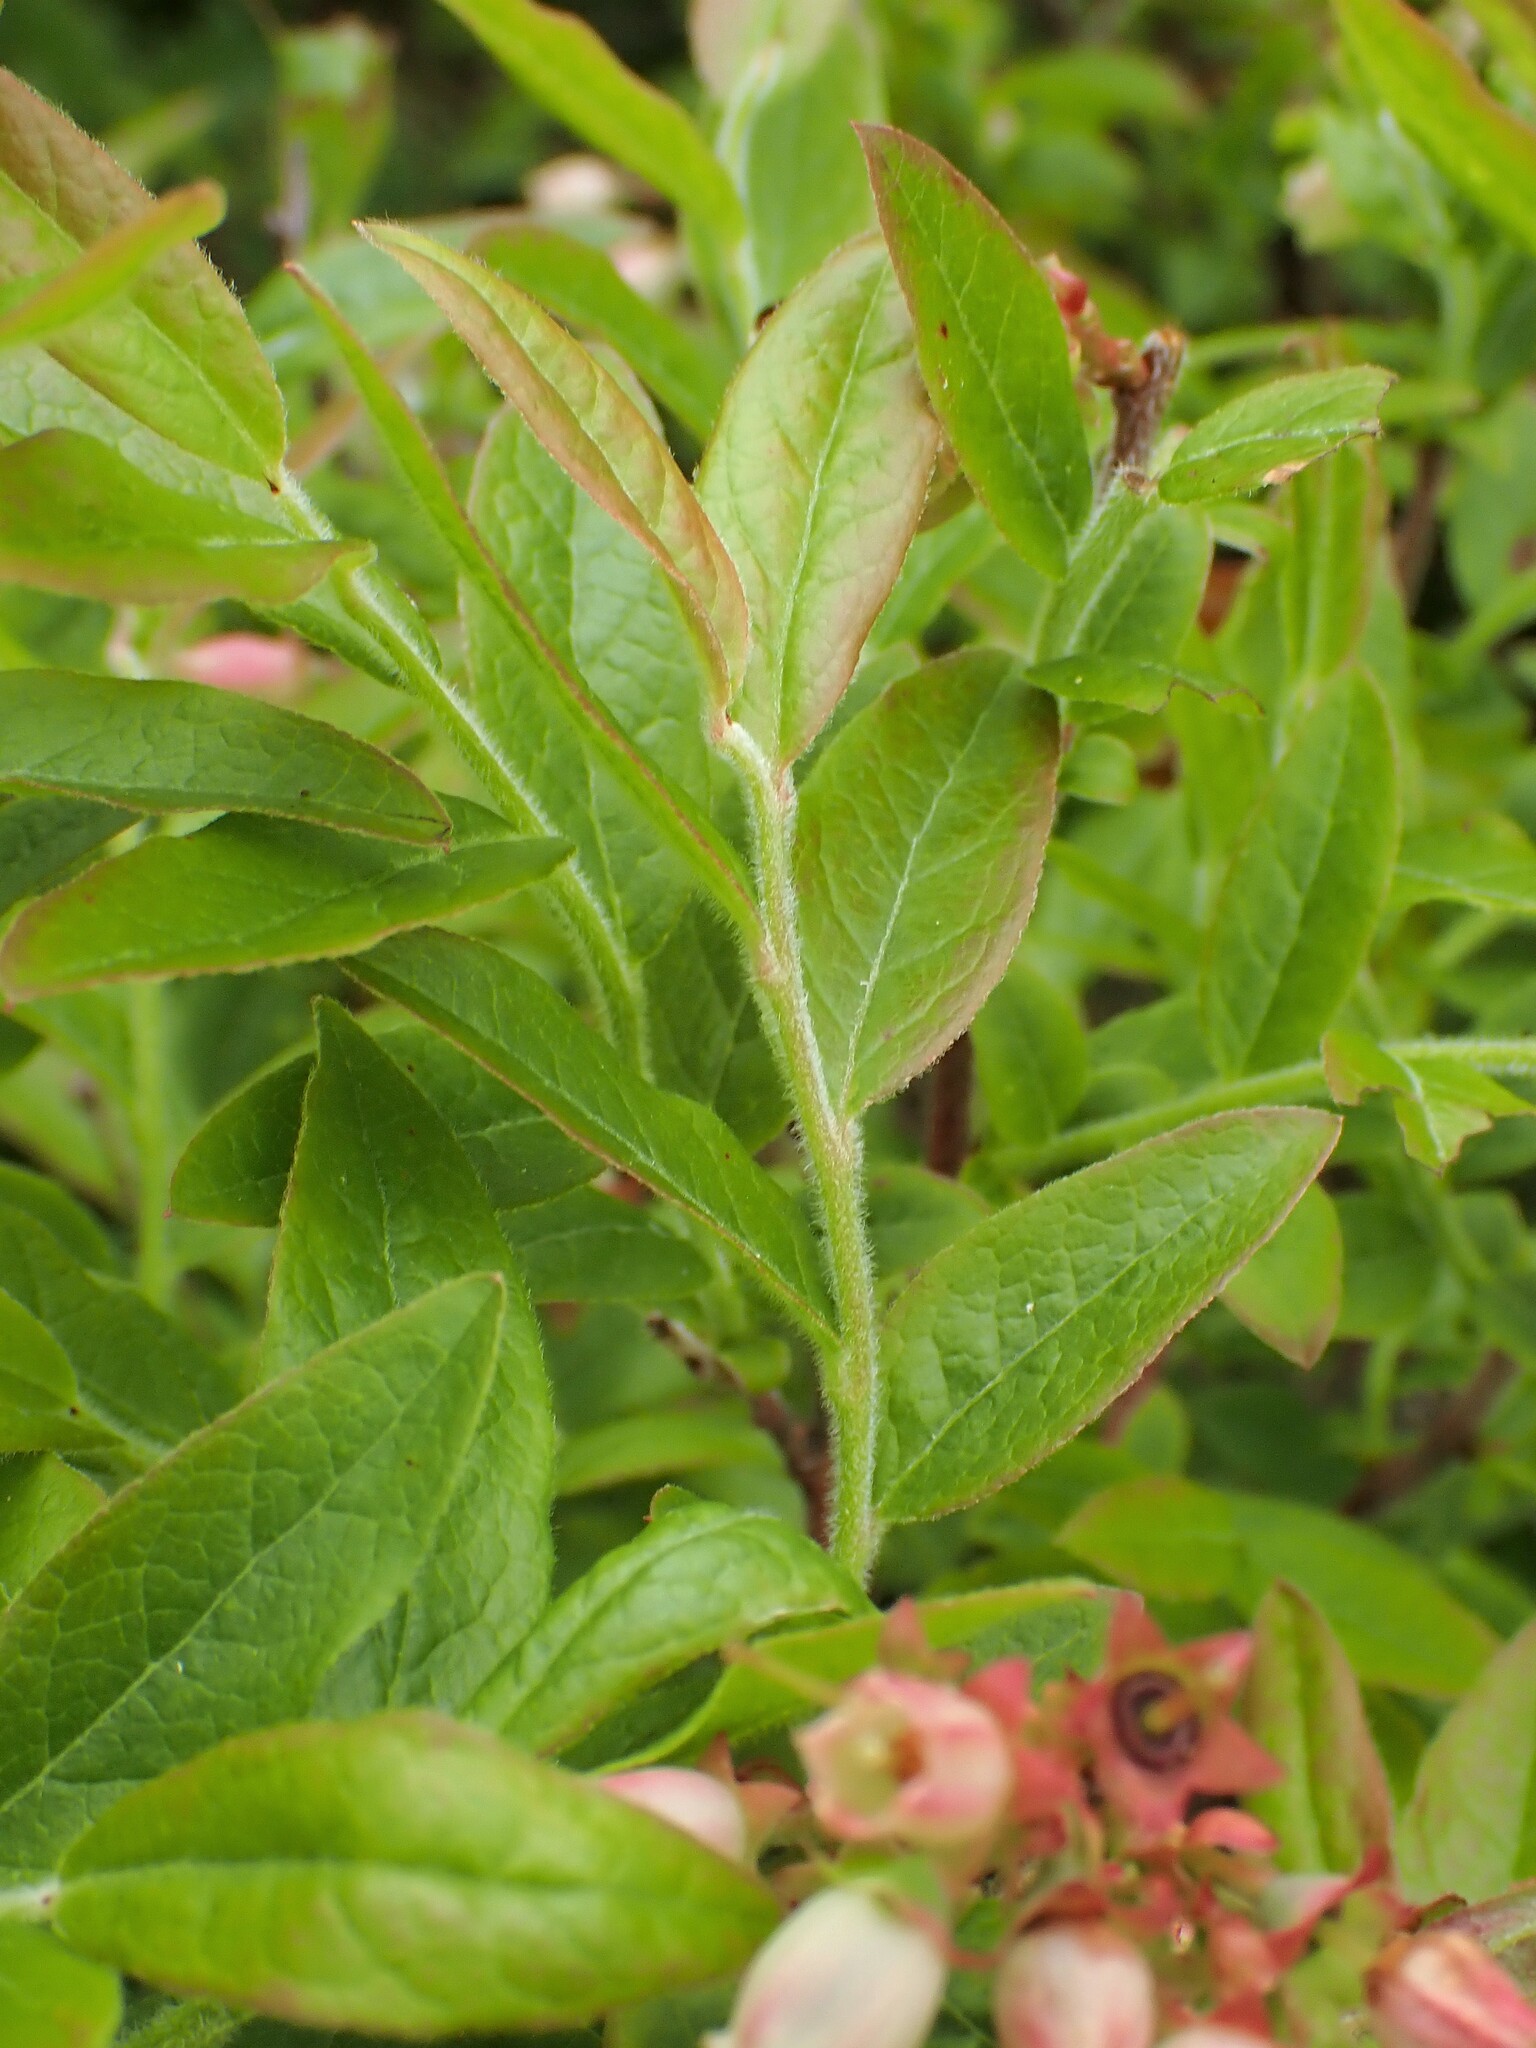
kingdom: Plantae
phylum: Tracheophyta
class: Magnoliopsida
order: Ericales
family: Ericaceae
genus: Vaccinium
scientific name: Vaccinium myrtilloides
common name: Canada blueberry
